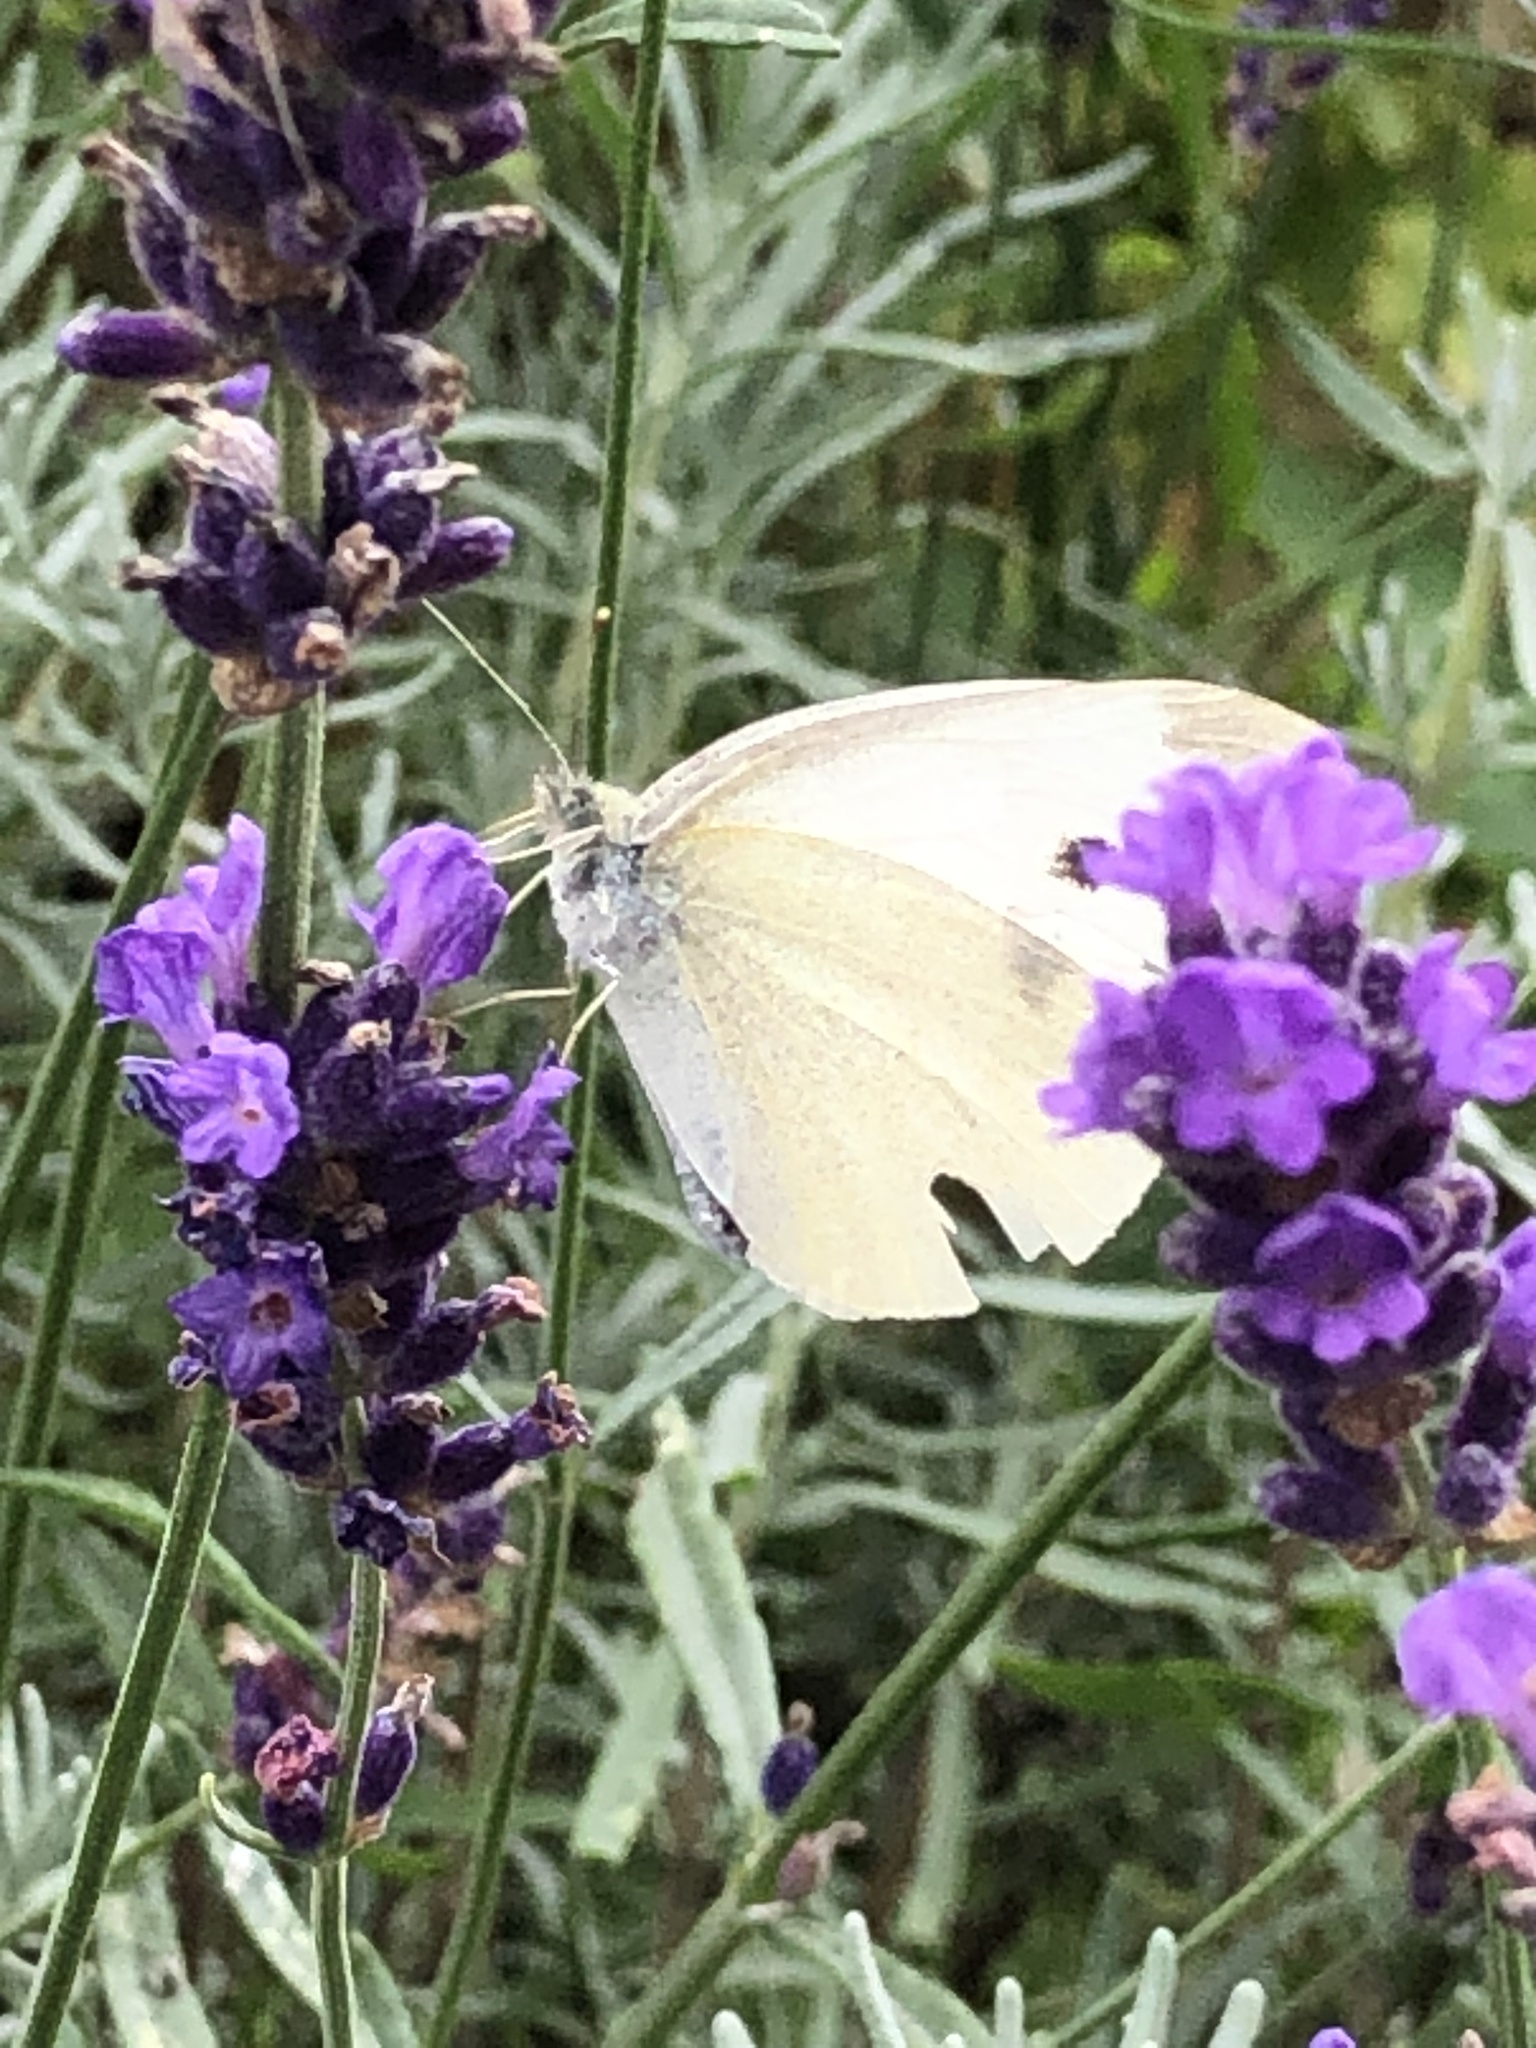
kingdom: Animalia
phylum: Arthropoda
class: Insecta
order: Lepidoptera
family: Pieridae
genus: Pieris
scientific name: Pieris rapae
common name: Small white
